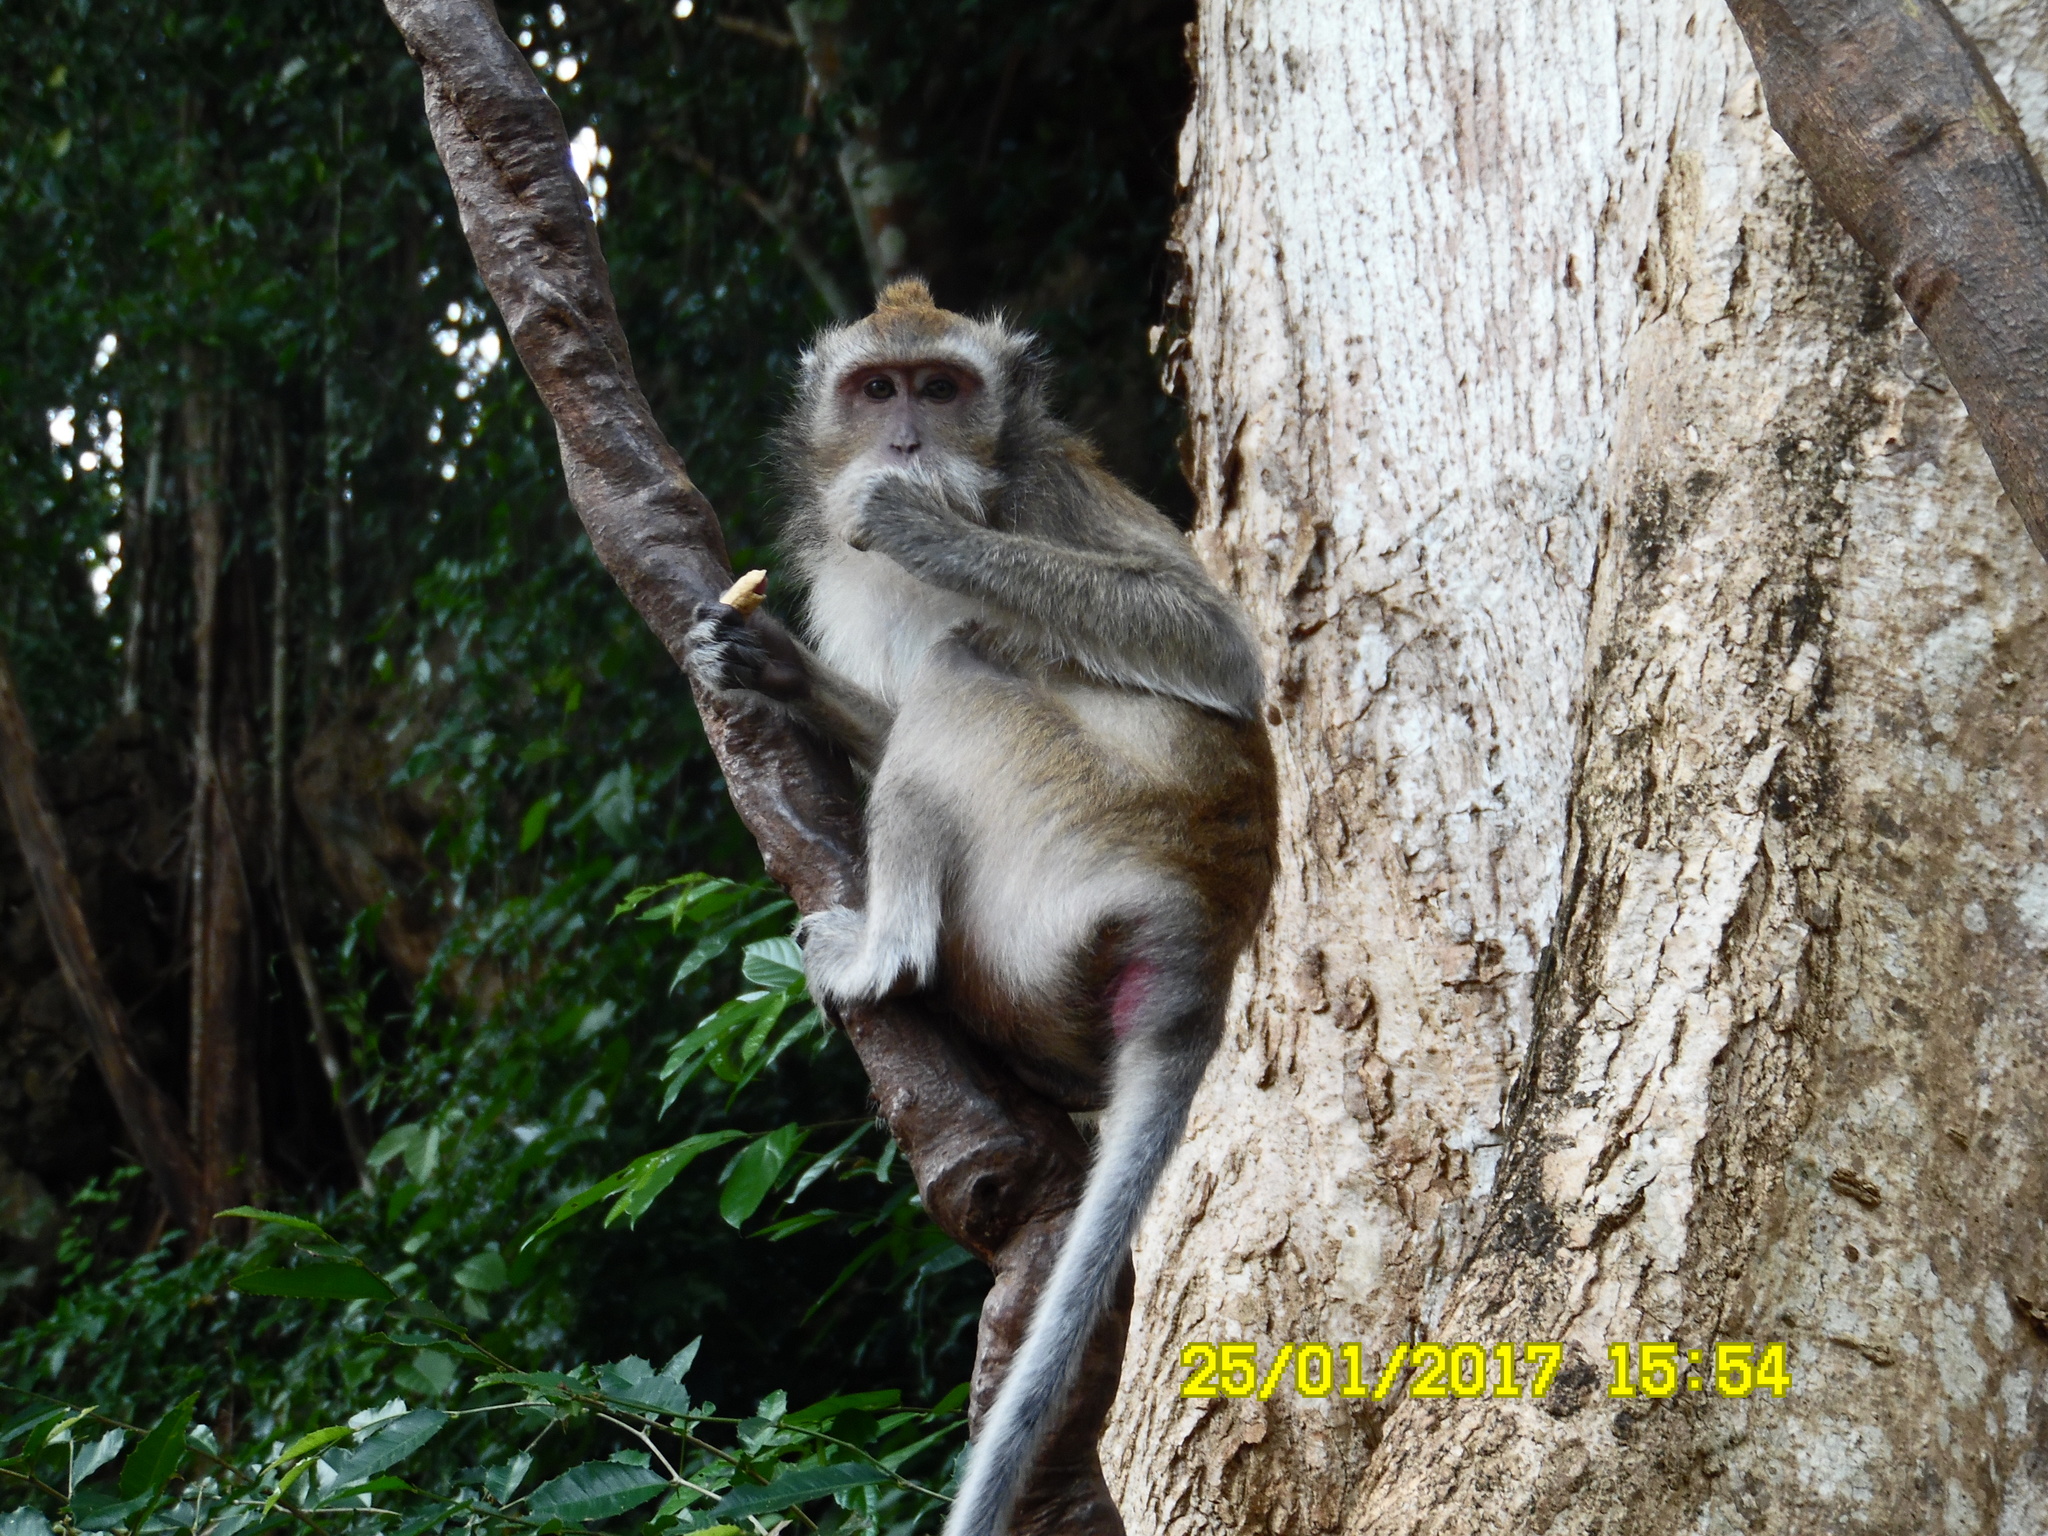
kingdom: Animalia
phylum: Chordata
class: Mammalia
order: Primates
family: Cercopithecidae
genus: Macaca
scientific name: Macaca fascicularis
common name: Crab-eating macaque
